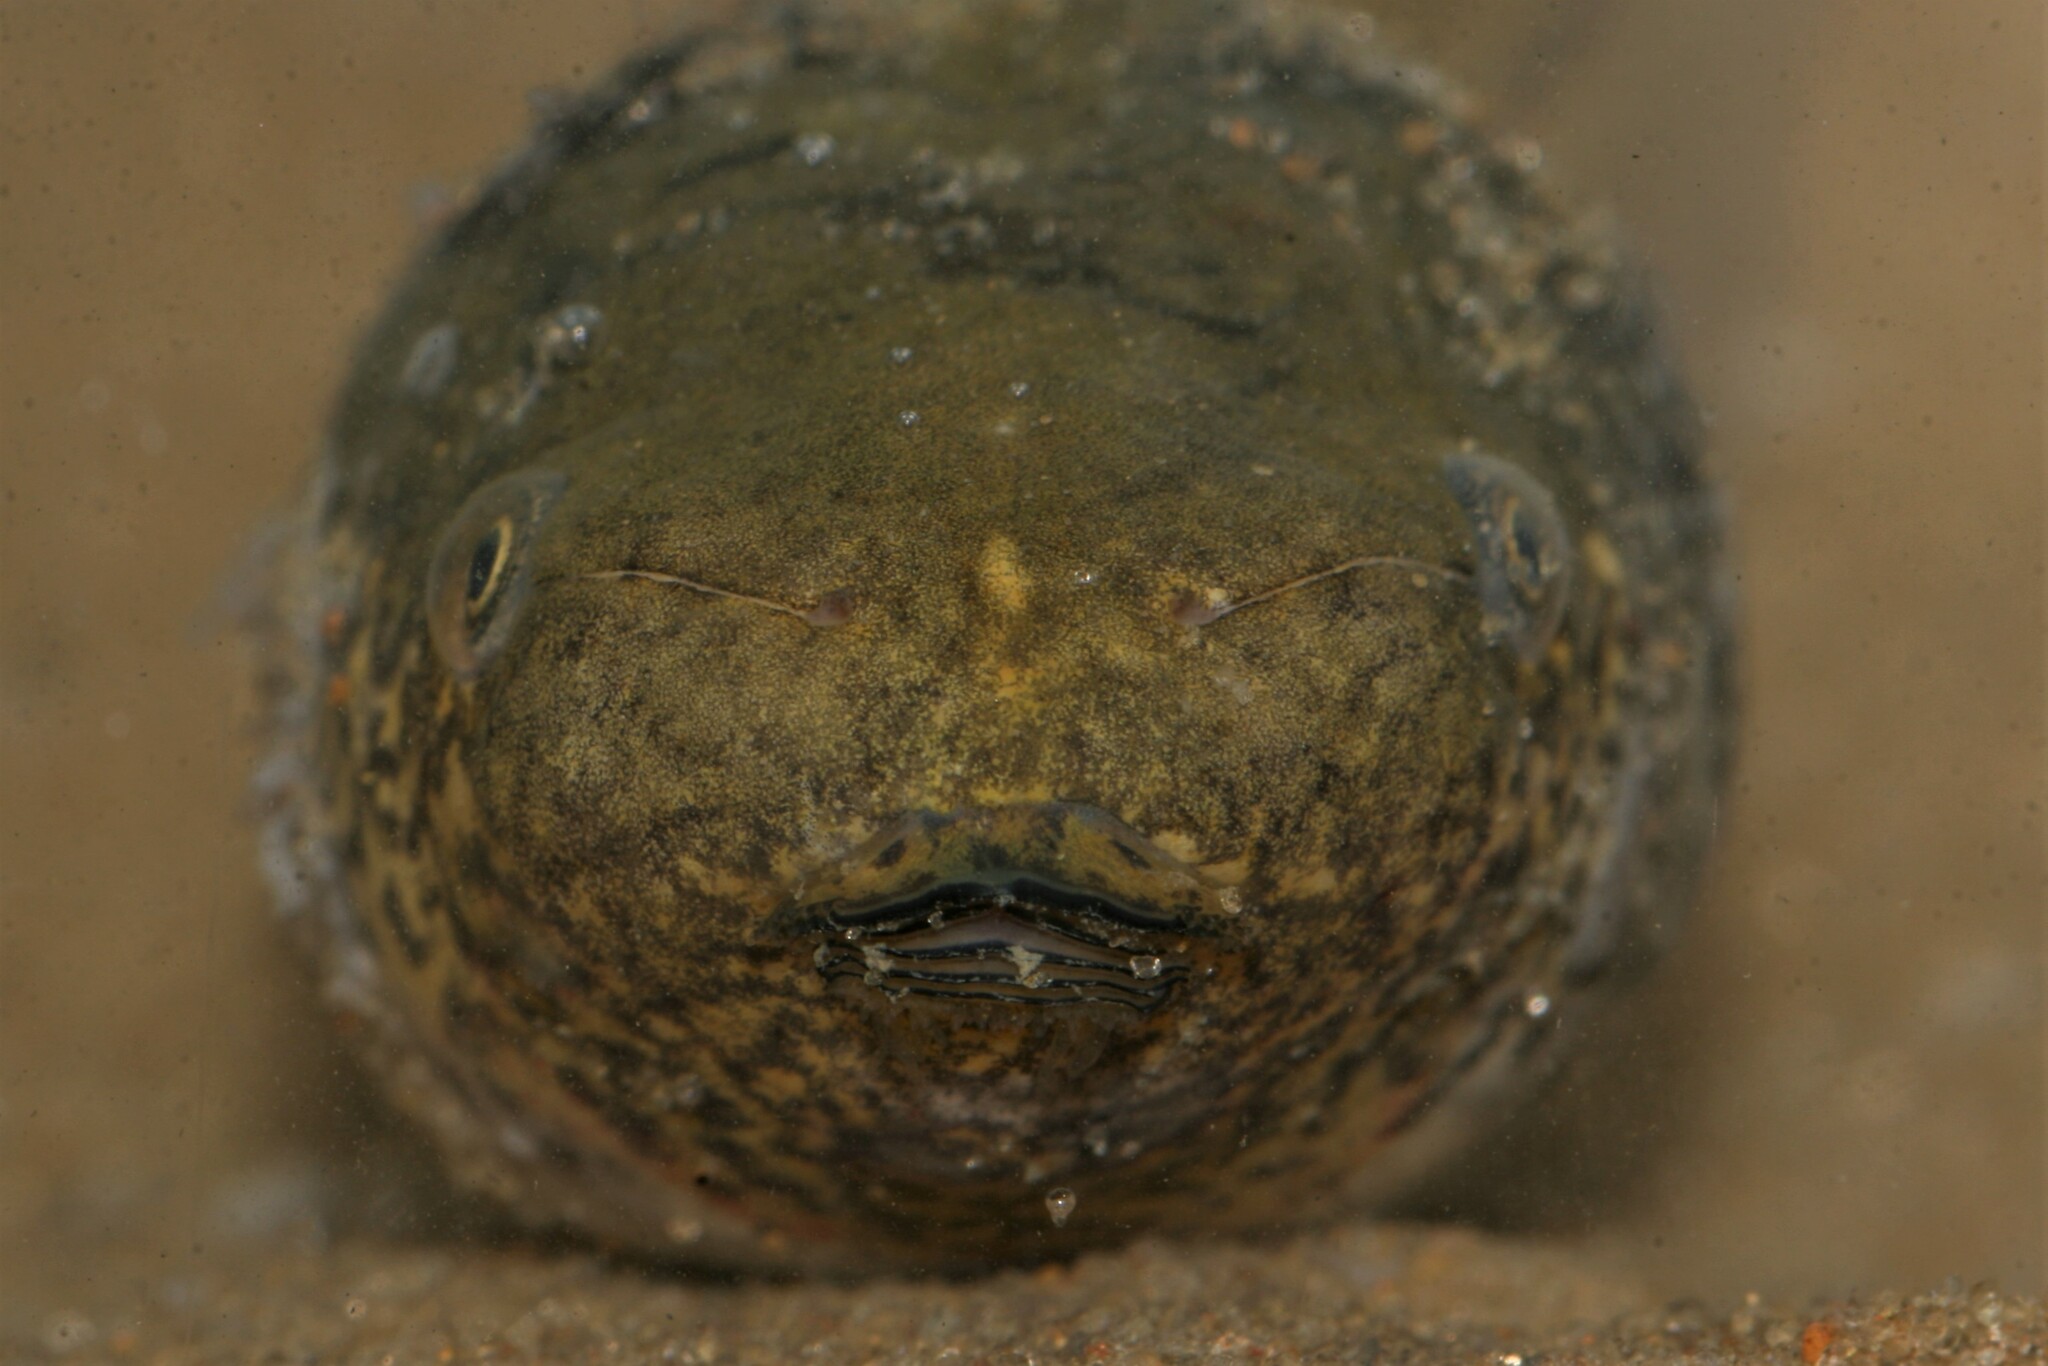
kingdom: Animalia
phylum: Chordata
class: Amphibia
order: Anura
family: Hemisotidae
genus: Hemisus
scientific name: Hemisus perreti
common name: Perret’s shovelnose frog
